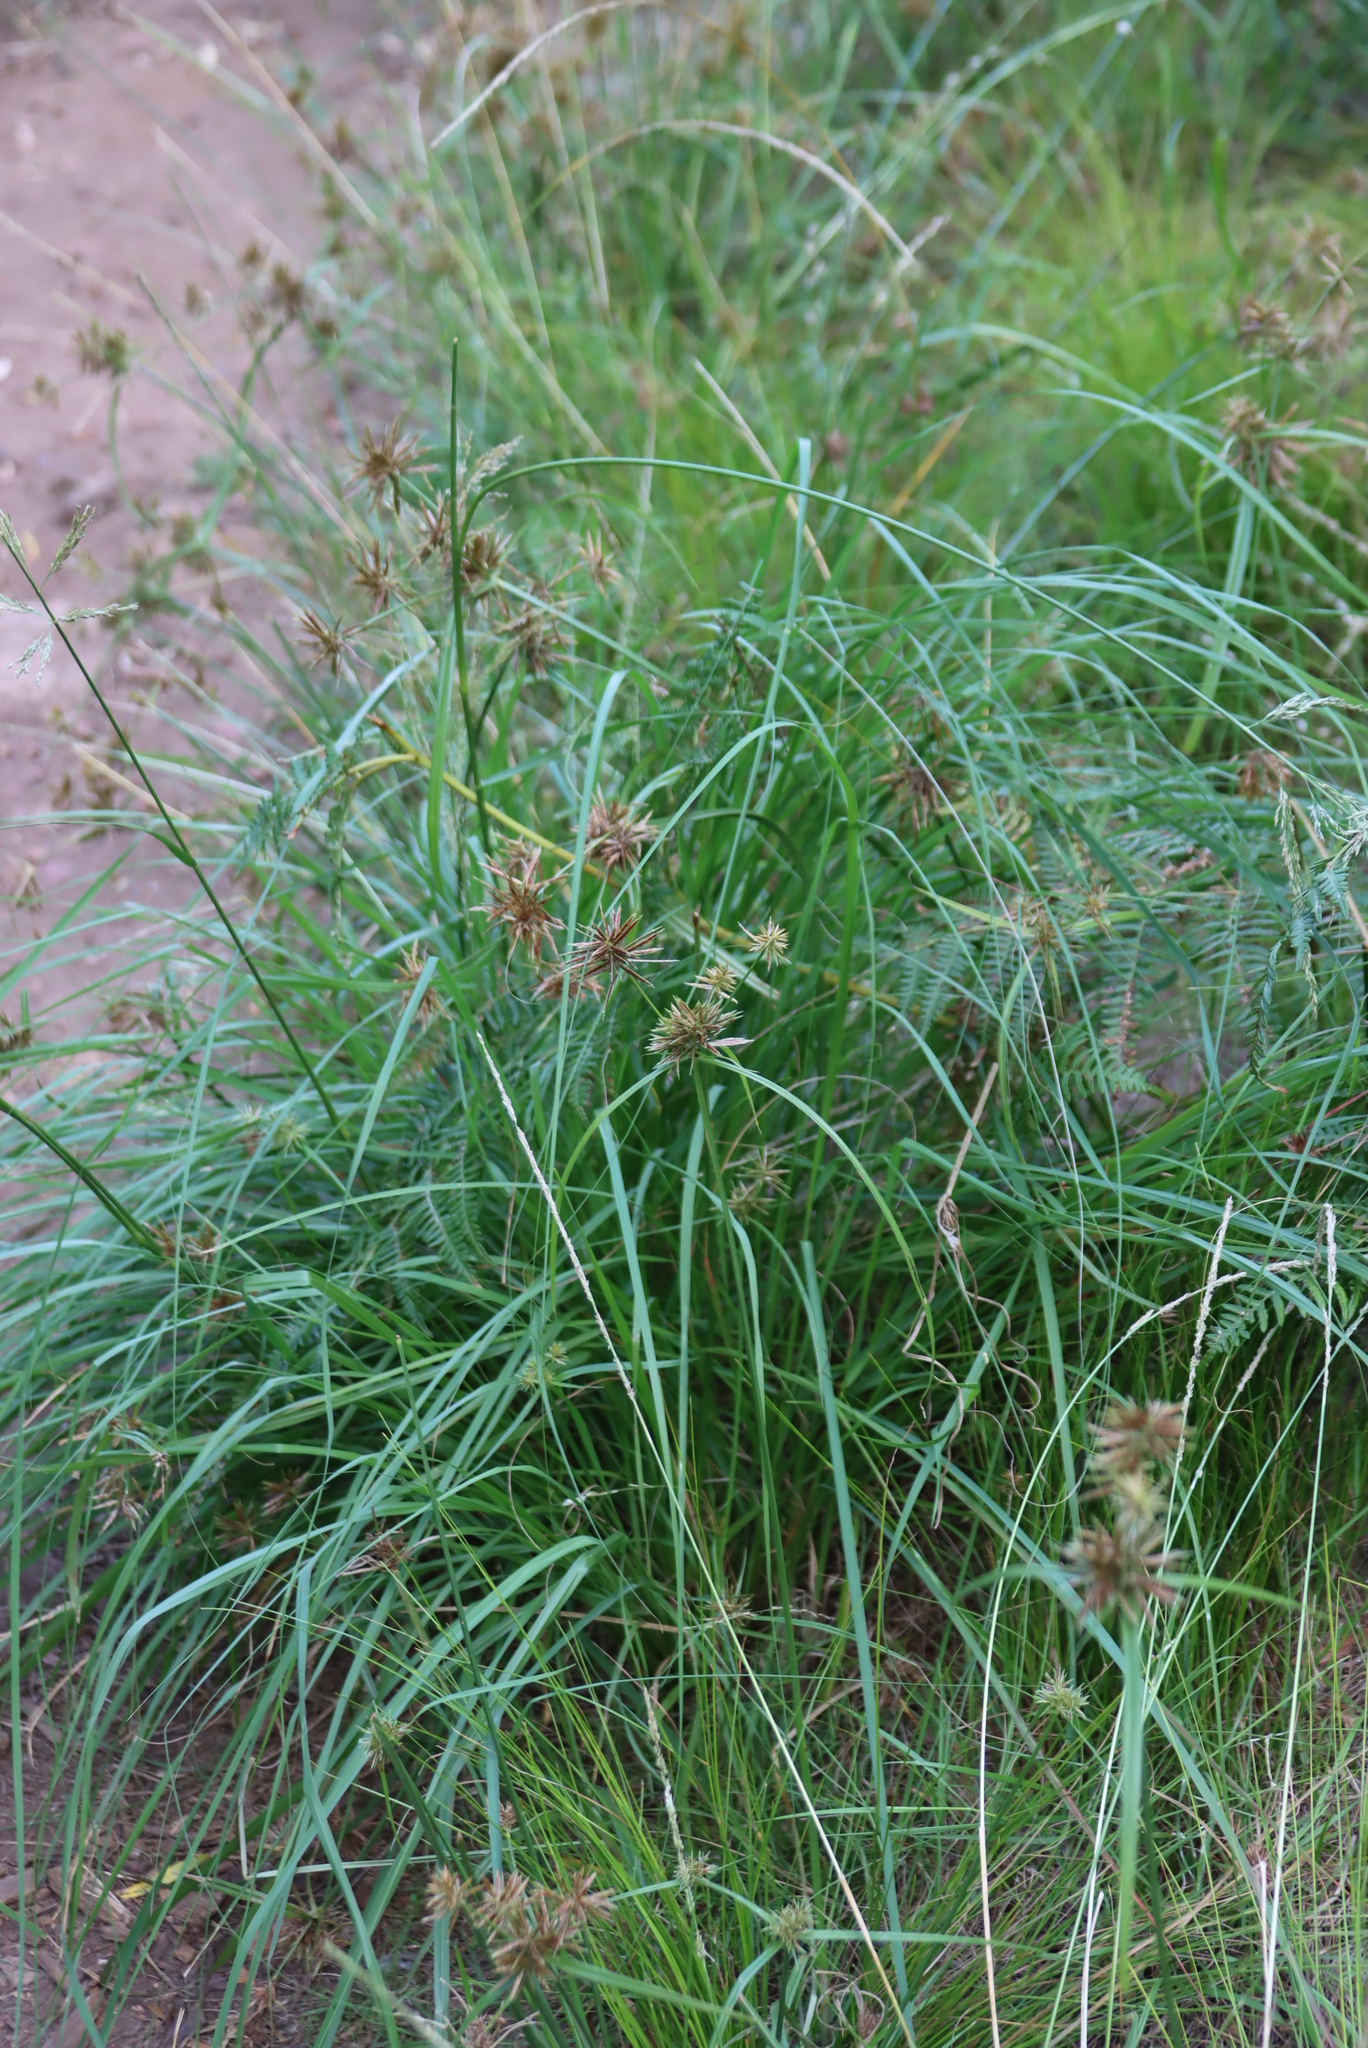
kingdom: Plantae
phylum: Tracheophyta
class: Liliopsida
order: Poales
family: Cyperaceae
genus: Cyperus
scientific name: Cyperus congestus
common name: Dense flat sedge
